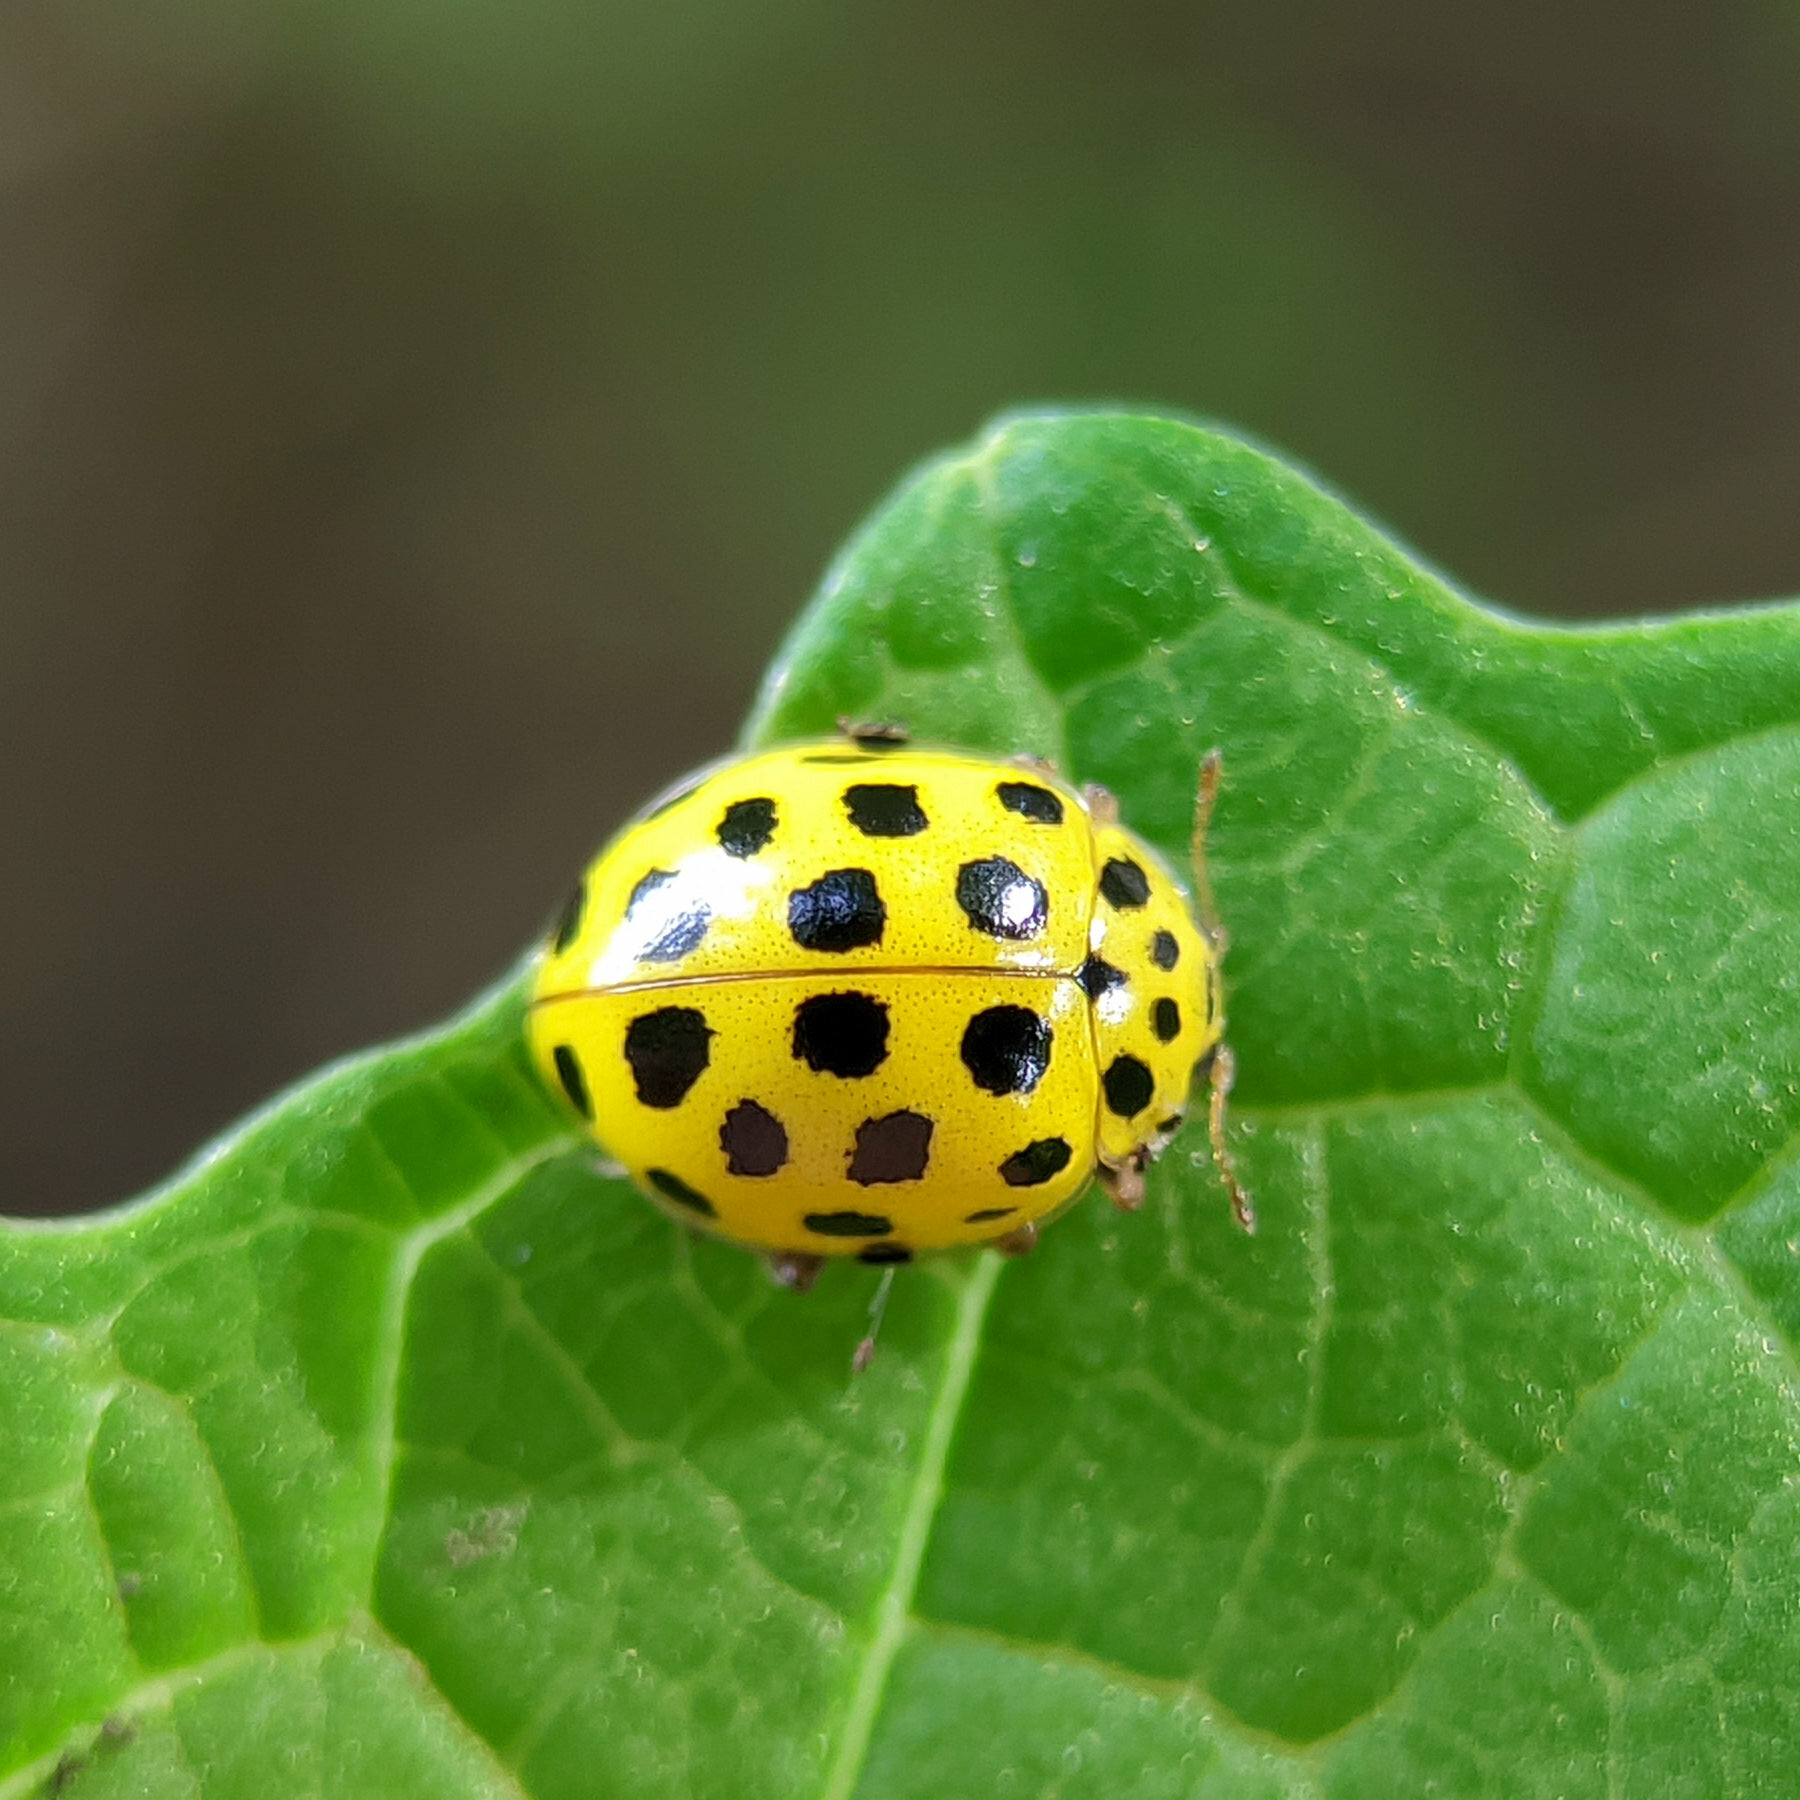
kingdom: Animalia
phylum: Arthropoda
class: Insecta
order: Coleoptera
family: Coccinellidae
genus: Psyllobora
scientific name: Psyllobora vigintiduopunctata
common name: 22-spot ladybird
